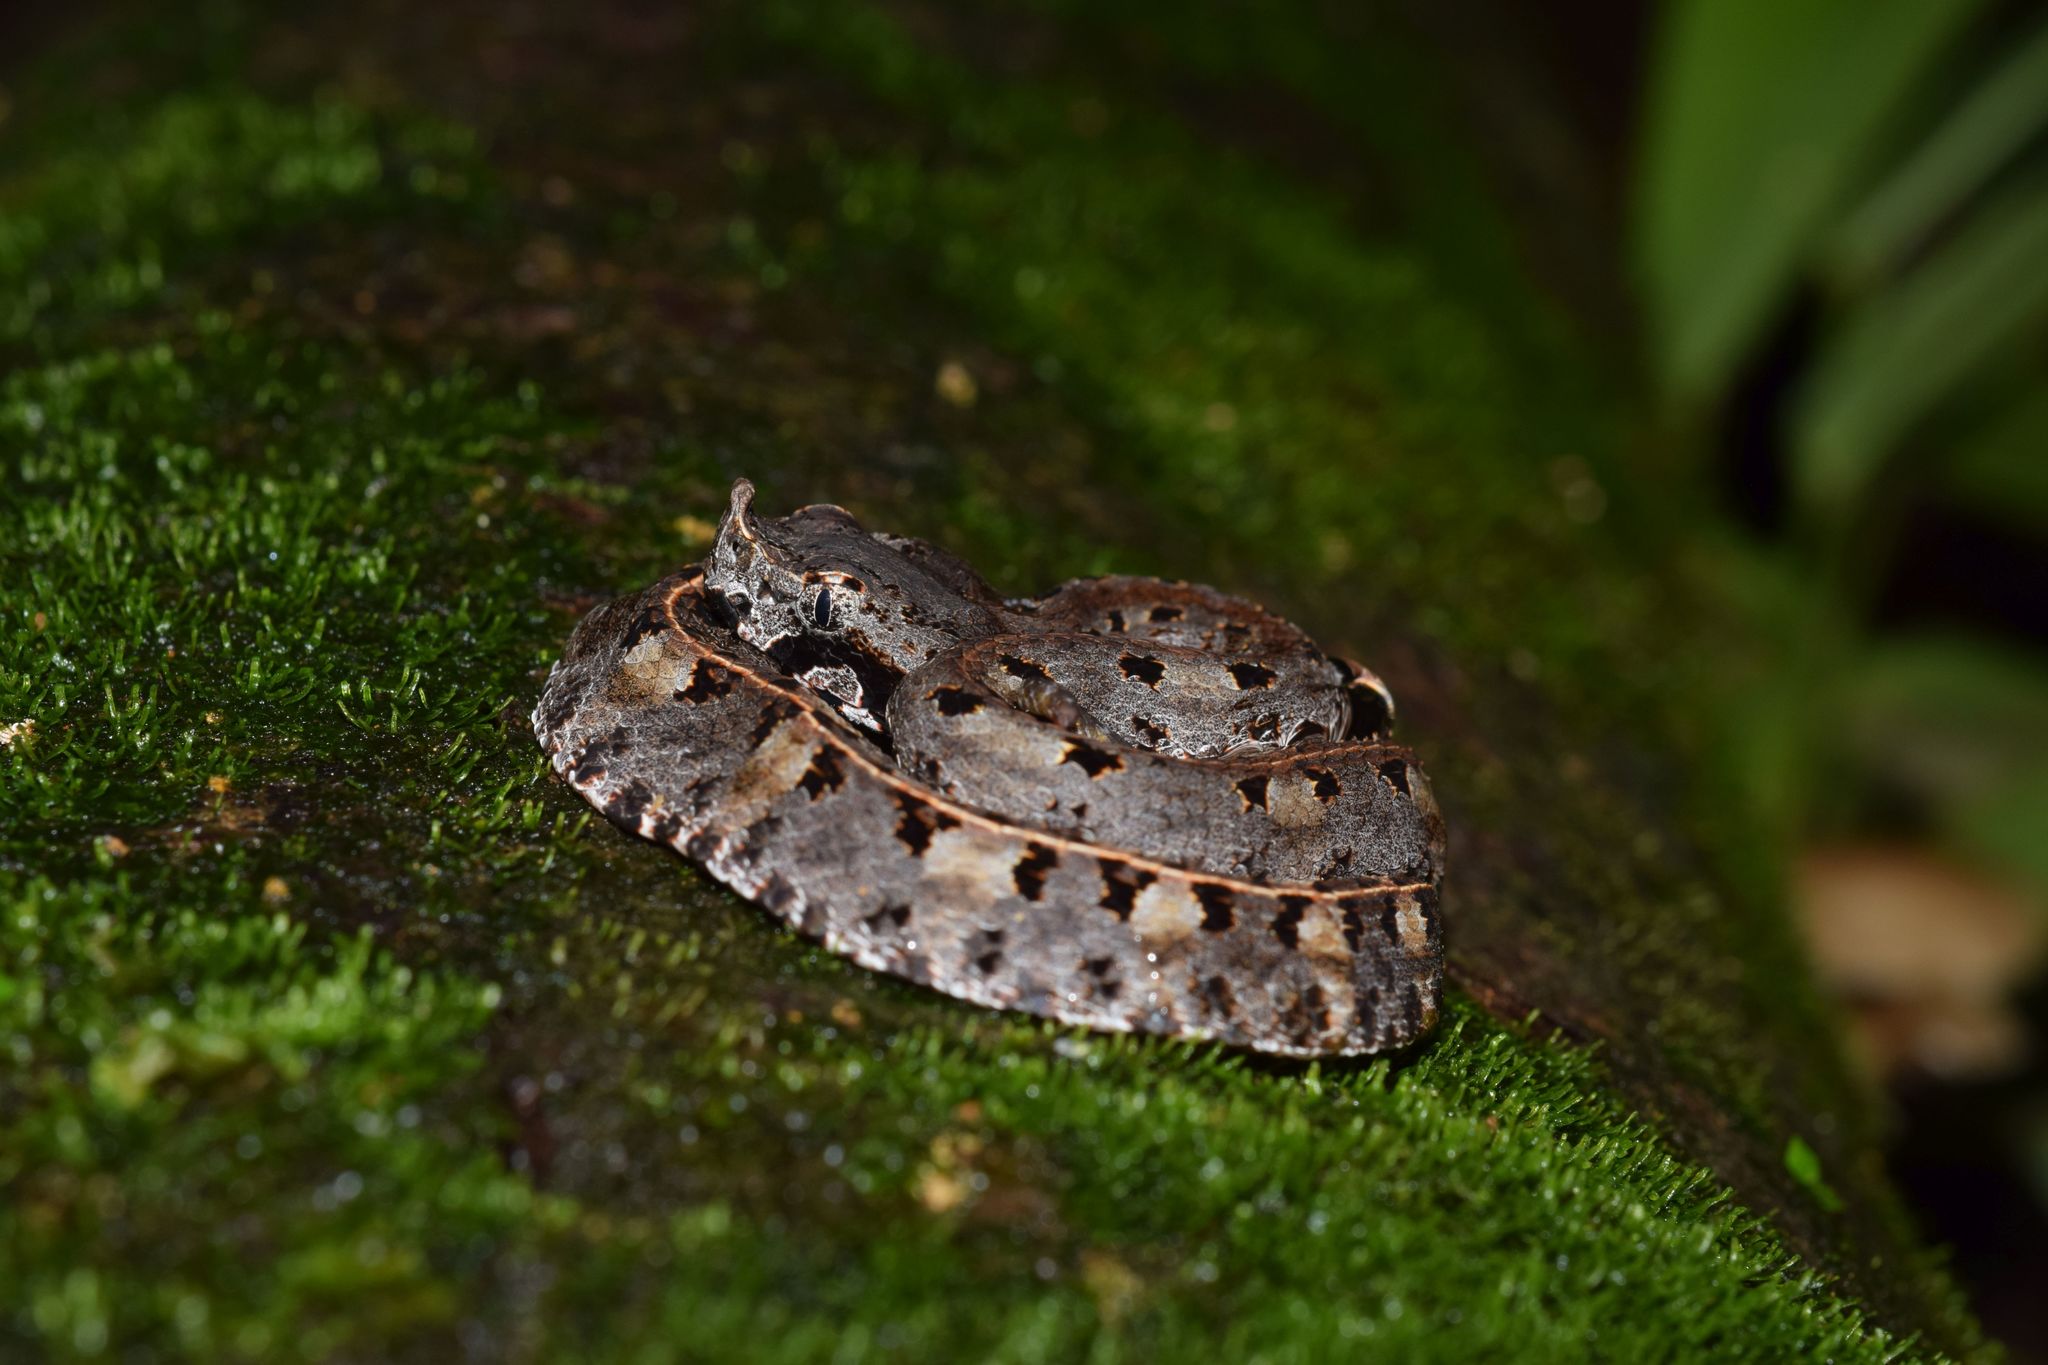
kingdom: Animalia
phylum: Chordata
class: Squamata
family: Viperidae
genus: Porthidium
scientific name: Porthidium nasutum
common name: Hognosed pit viper
